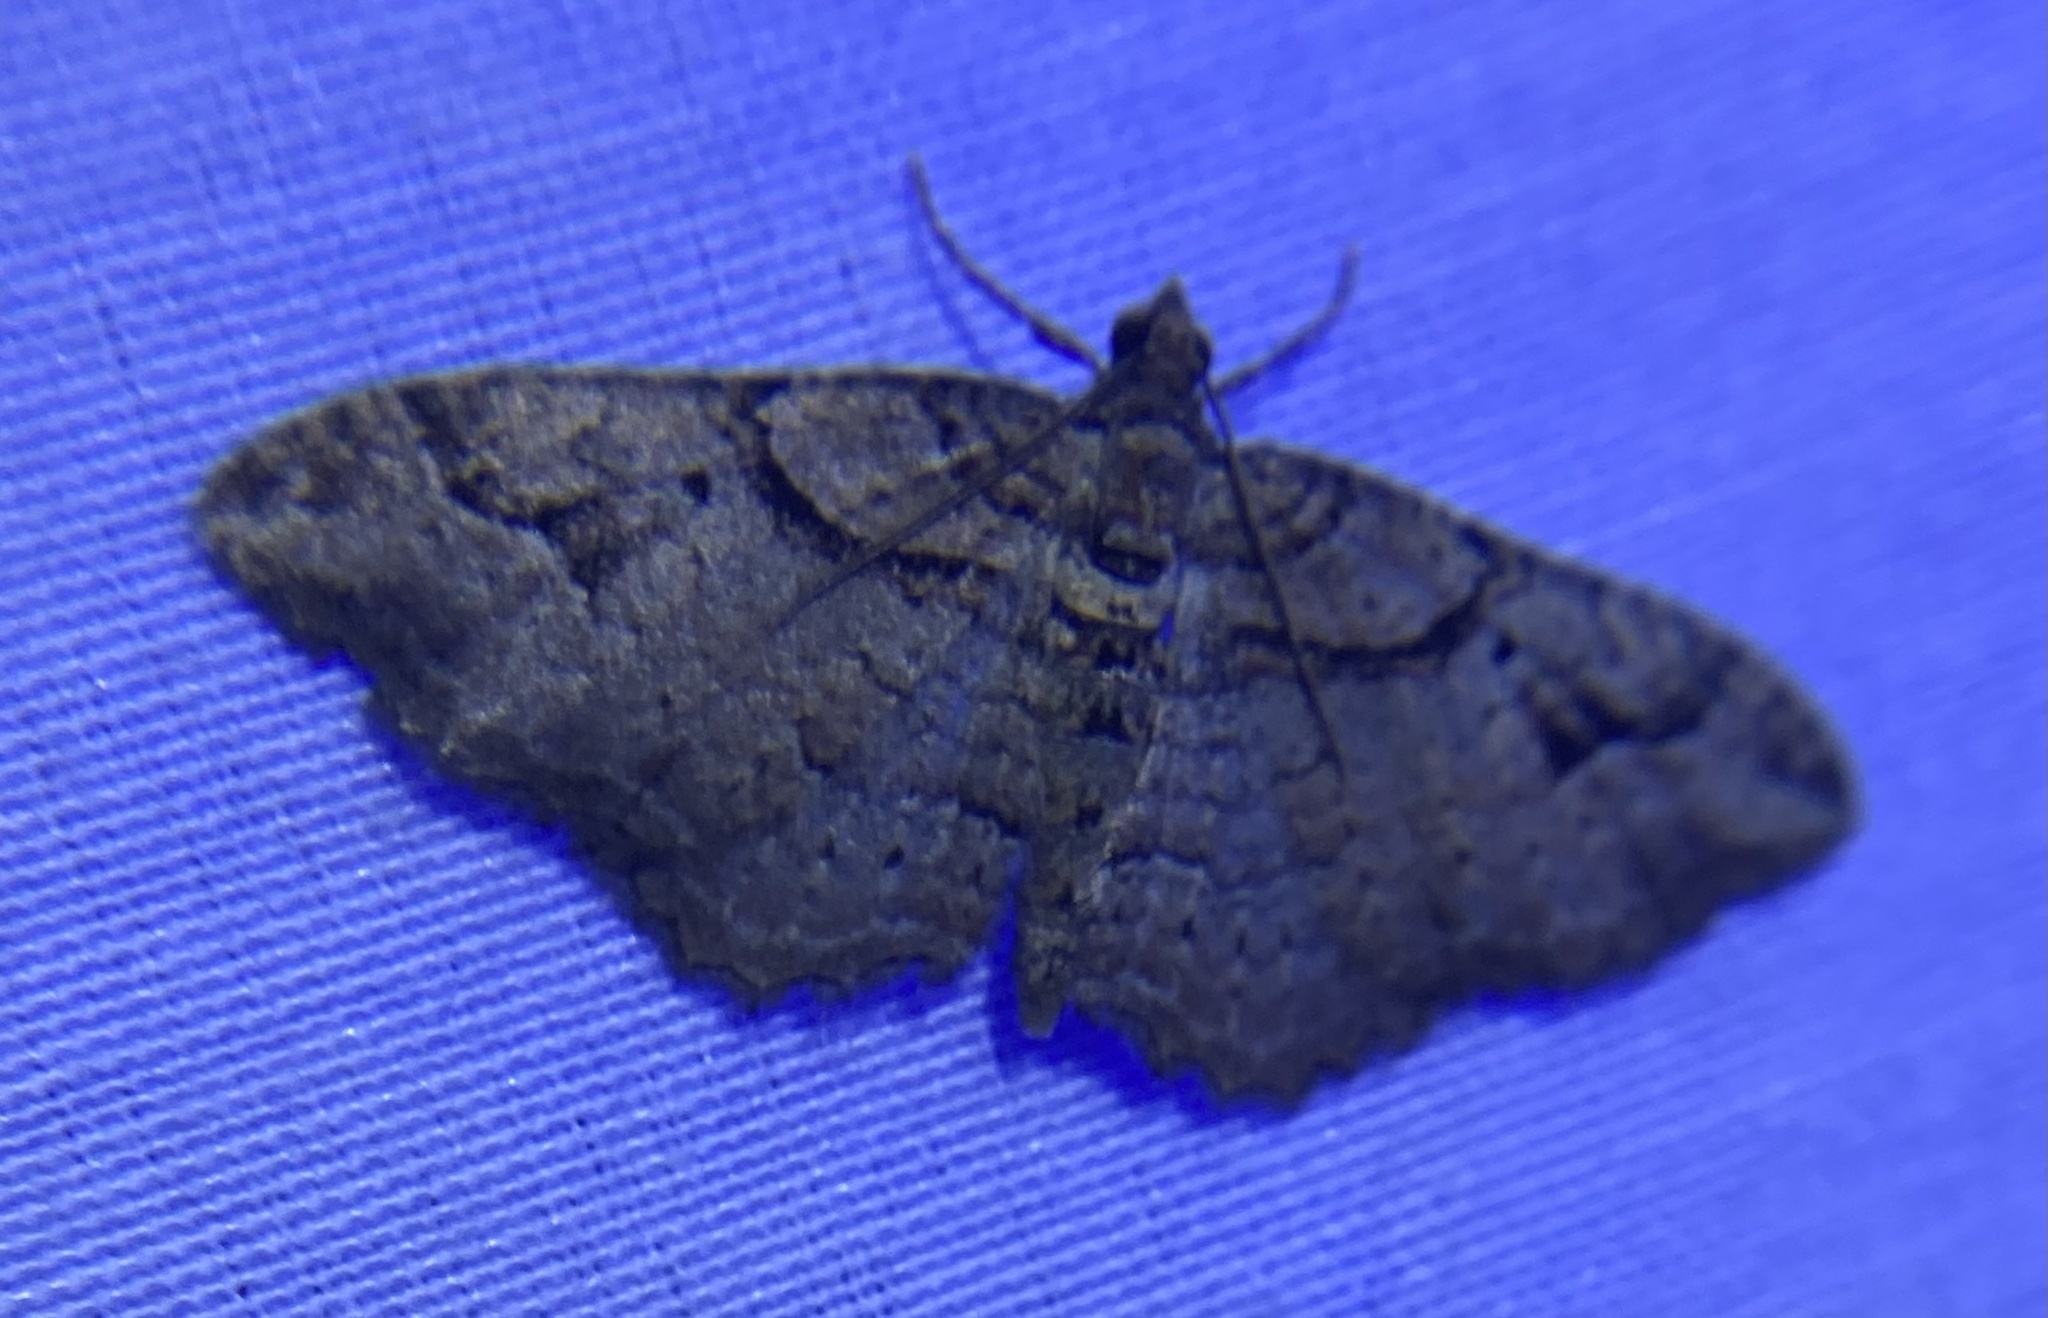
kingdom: Animalia
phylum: Arthropoda
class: Insecta
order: Lepidoptera
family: Geometridae
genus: Costaconvexa
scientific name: Costaconvexa centrostrigaria
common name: Bent-line carpet
